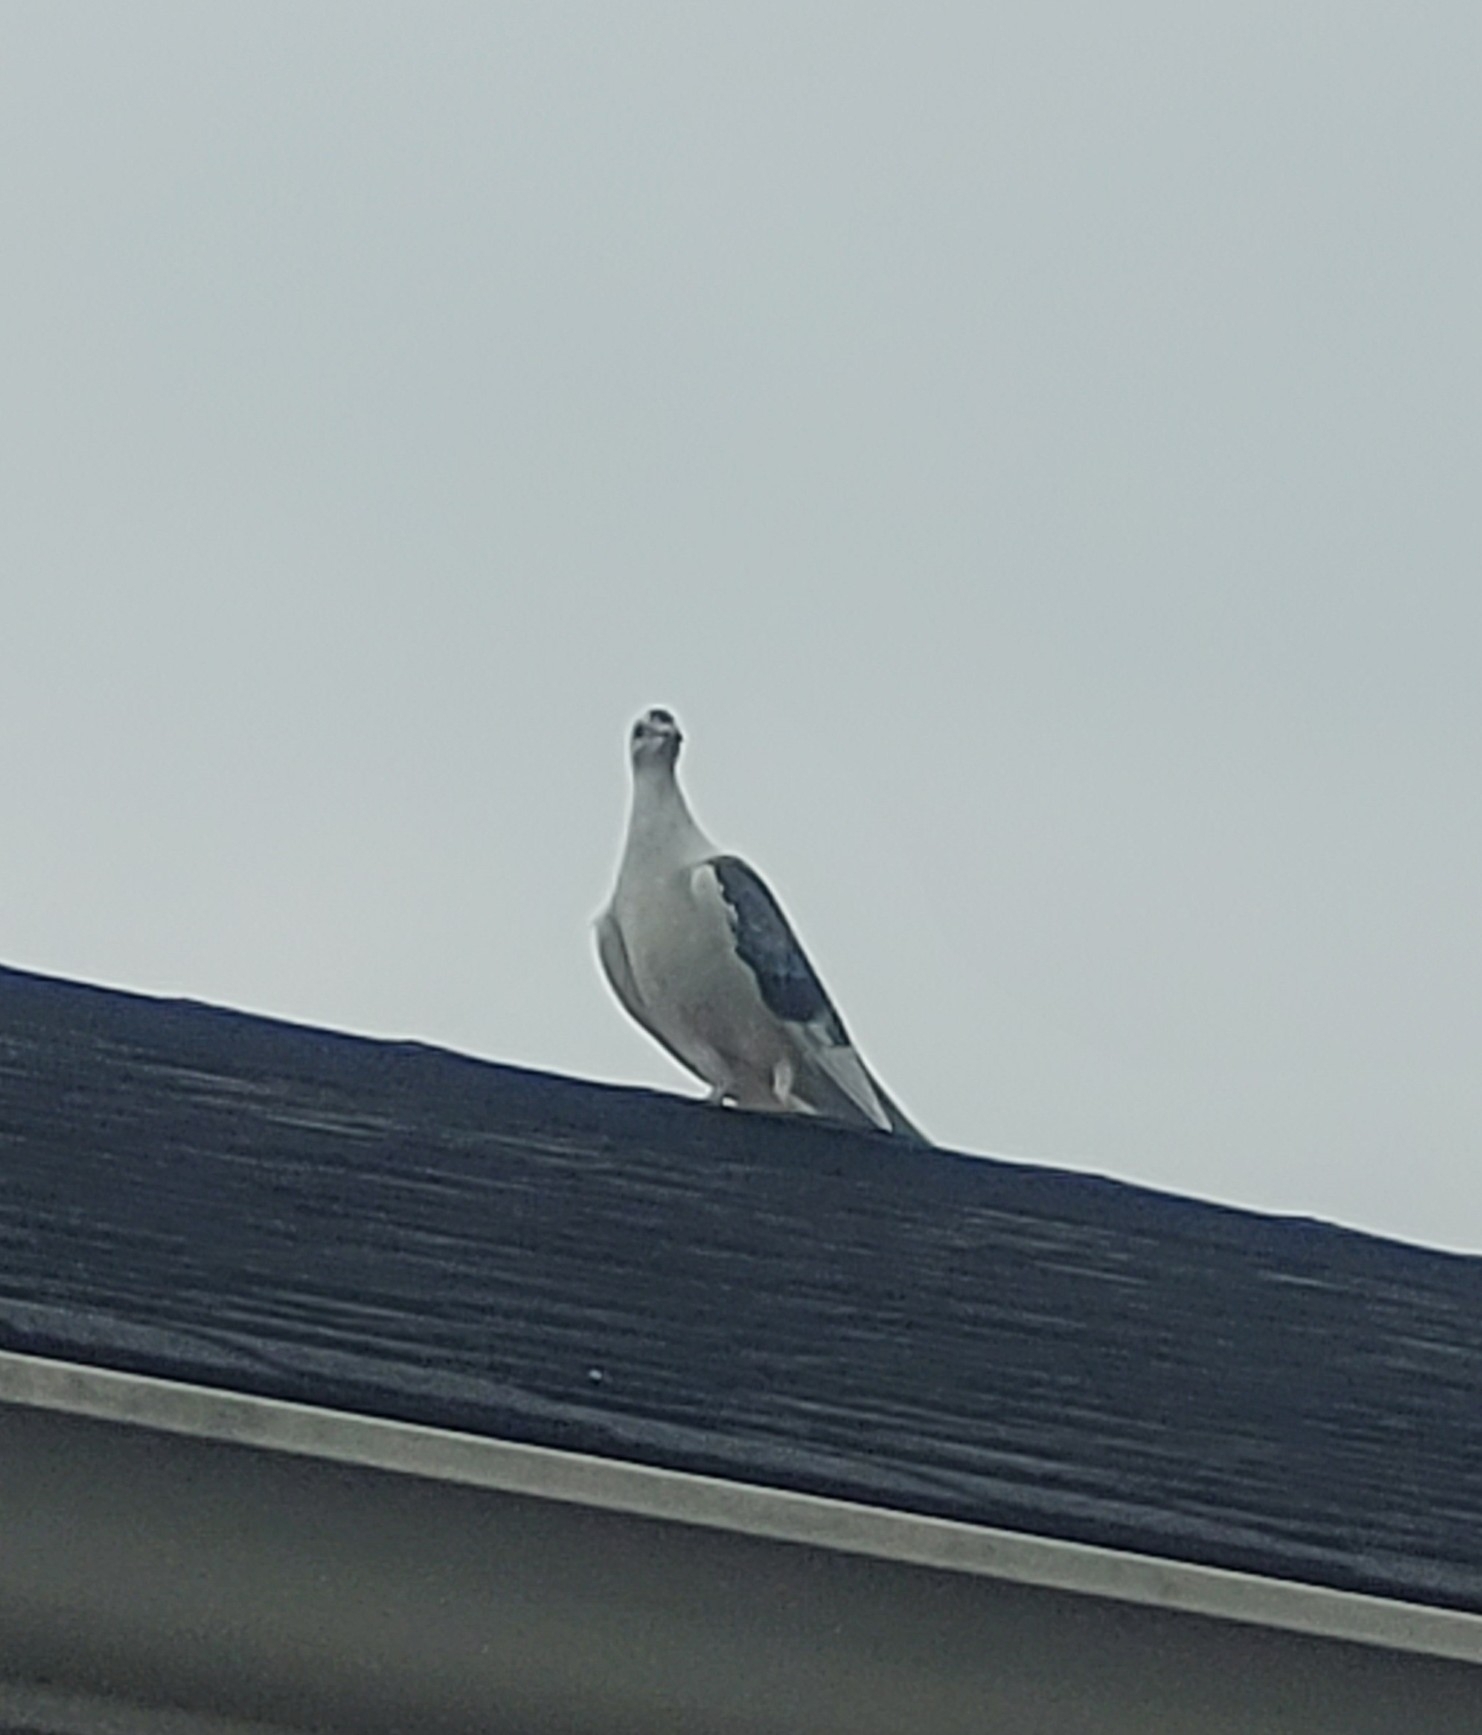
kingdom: Animalia
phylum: Chordata
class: Aves
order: Columbiformes
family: Columbidae
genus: Columba
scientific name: Columba livia
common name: Rock pigeon
